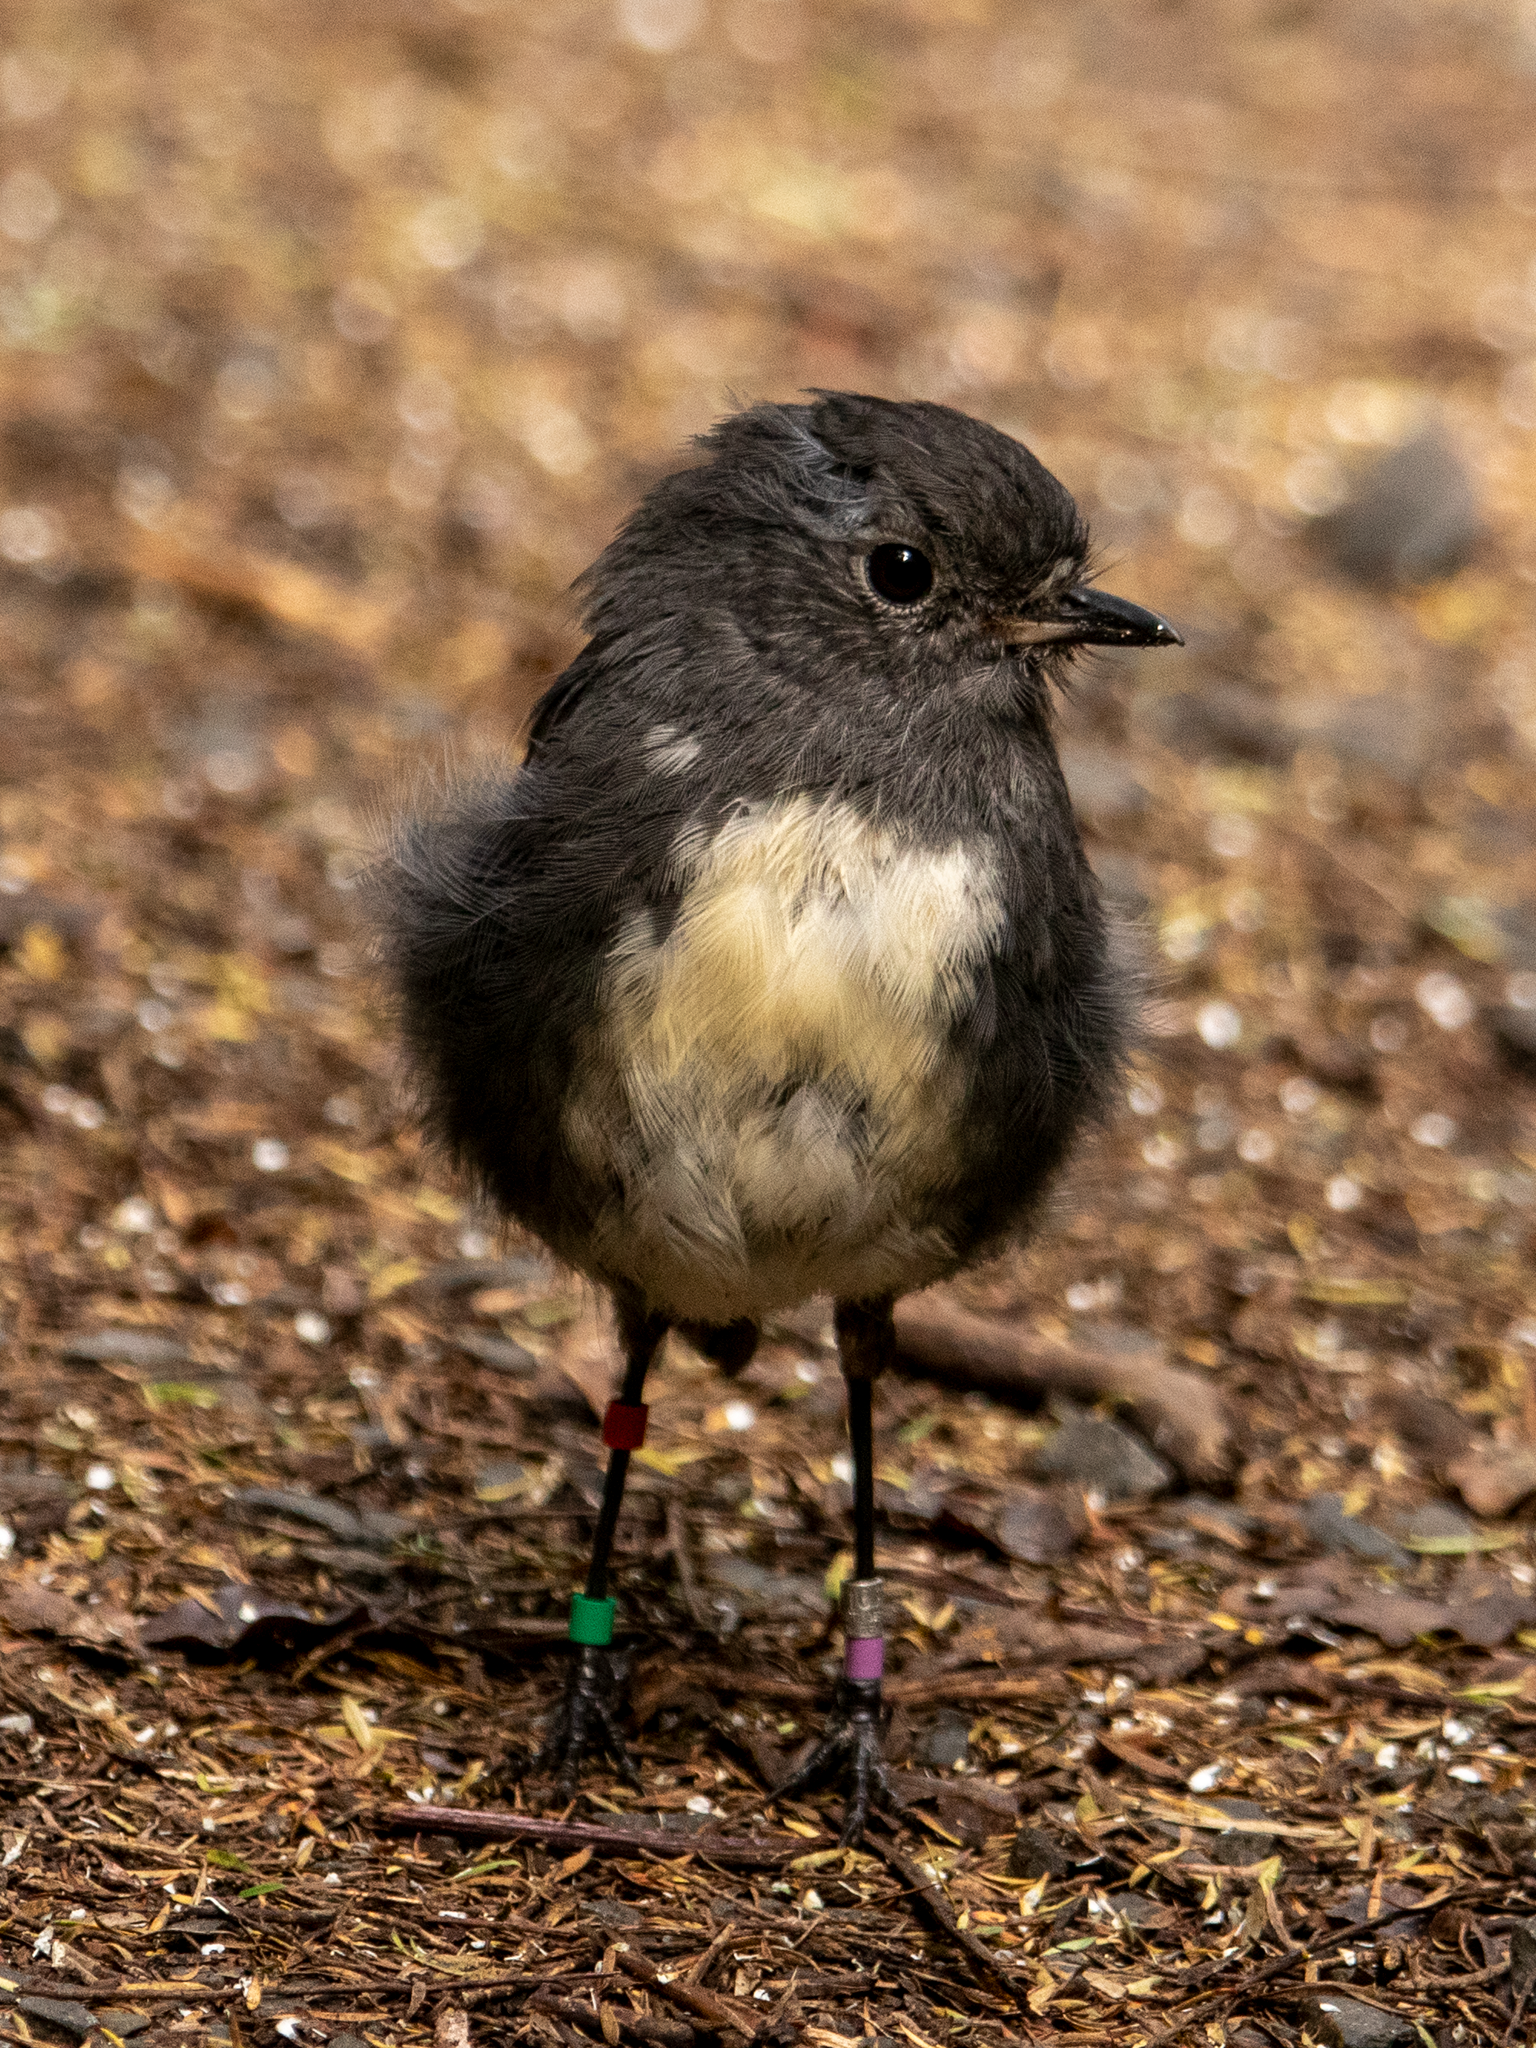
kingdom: Animalia
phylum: Chordata
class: Aves
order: Passeriformes
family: Petroicidae
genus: Petroica
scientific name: Petroica australis
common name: New zealand robin
